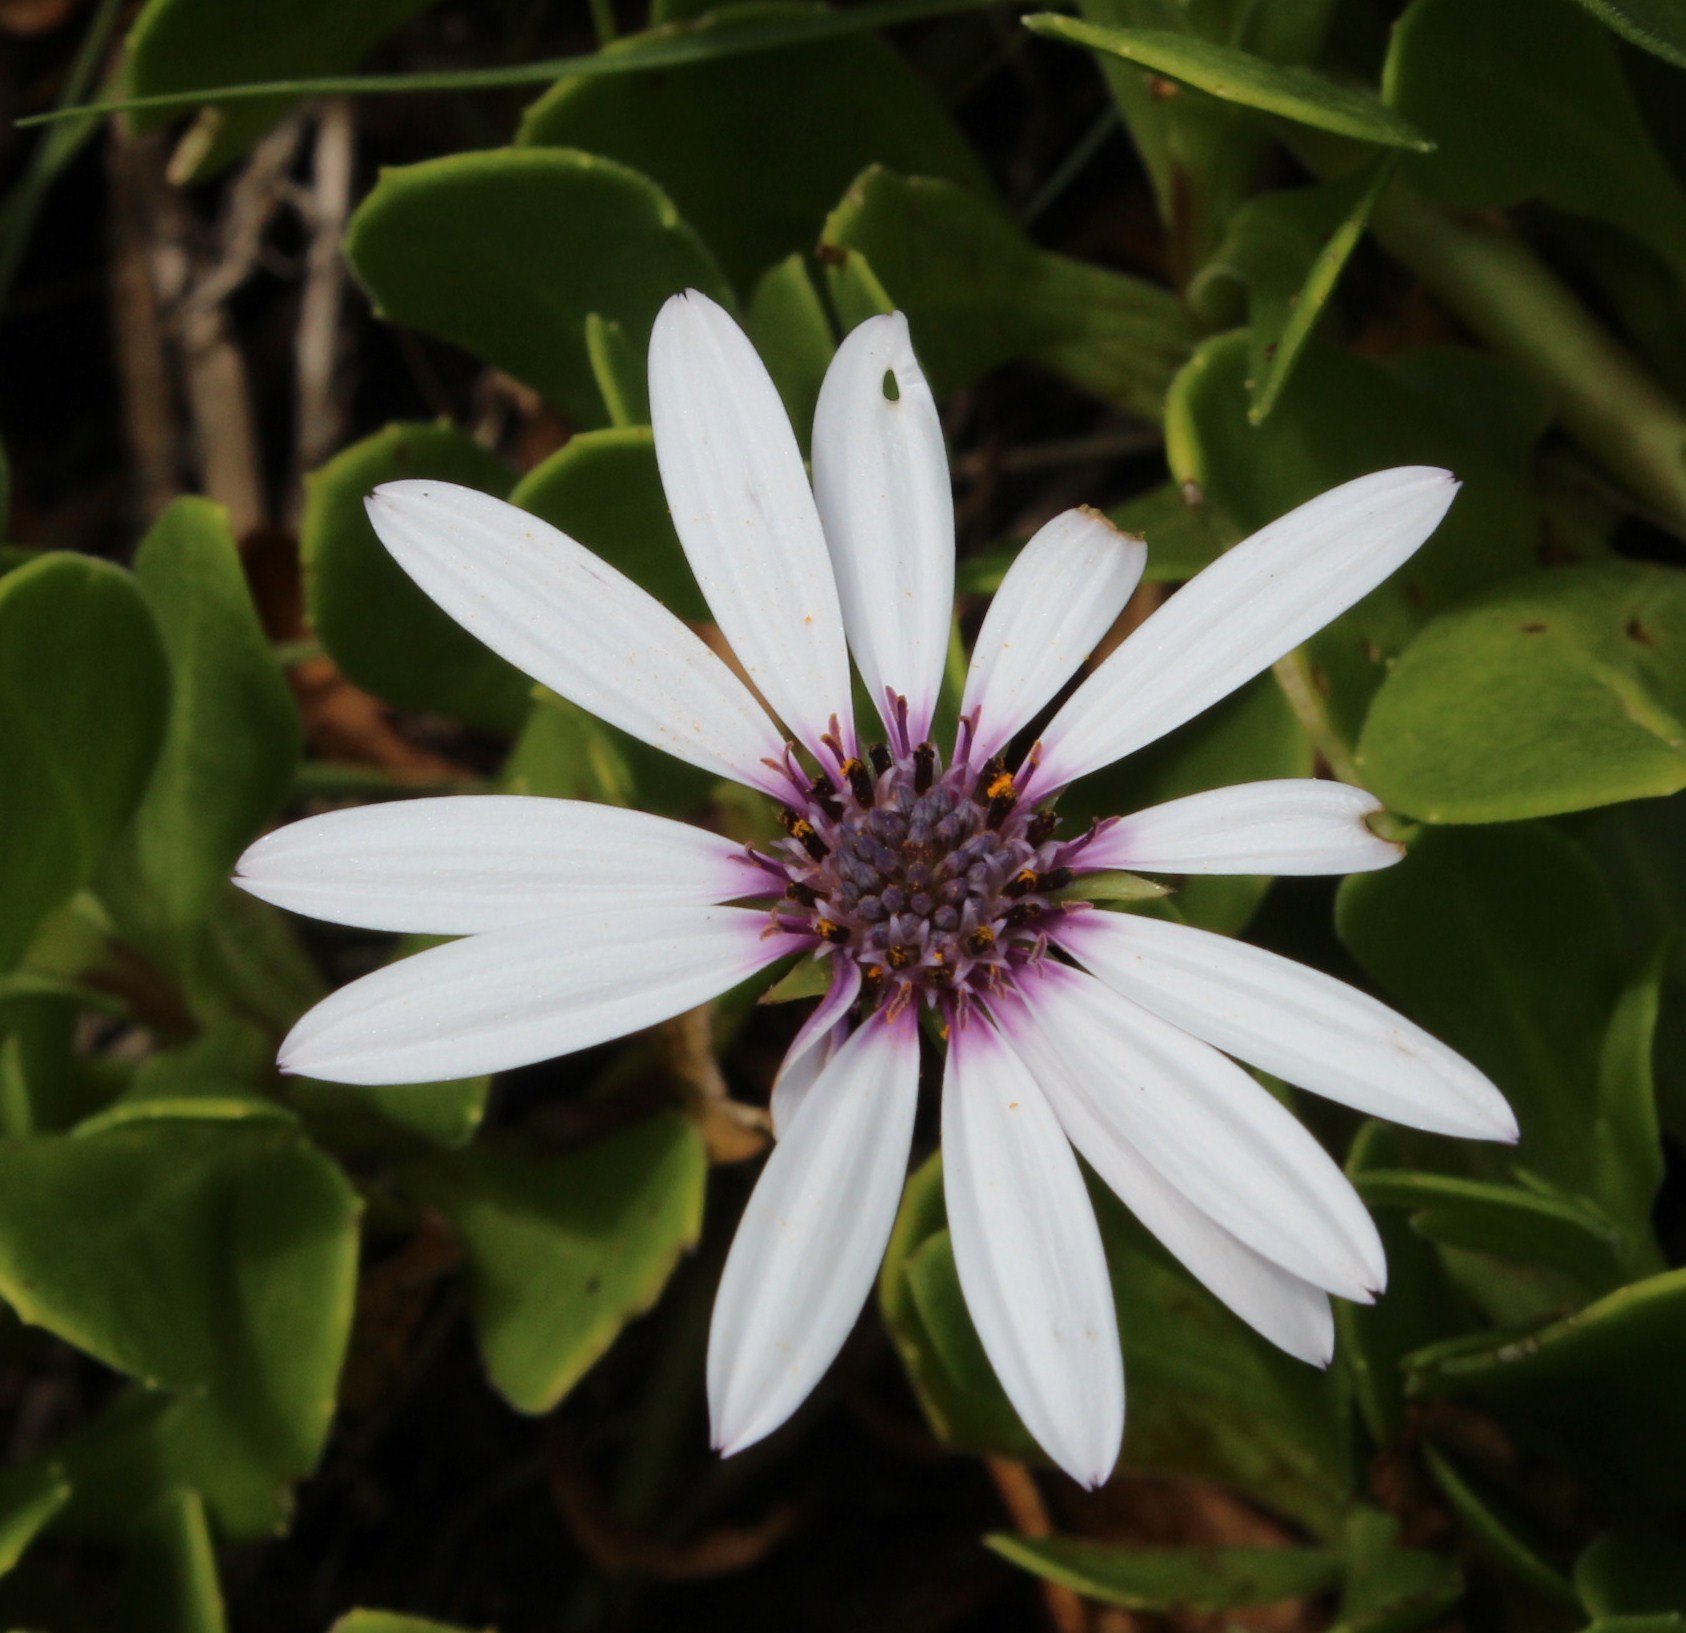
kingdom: Plantae
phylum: Tracheophyta
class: Magnoliopsida
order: Asterales
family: Asteraceae
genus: Dimorphotheca
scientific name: Dimorphotheca fruticosa
